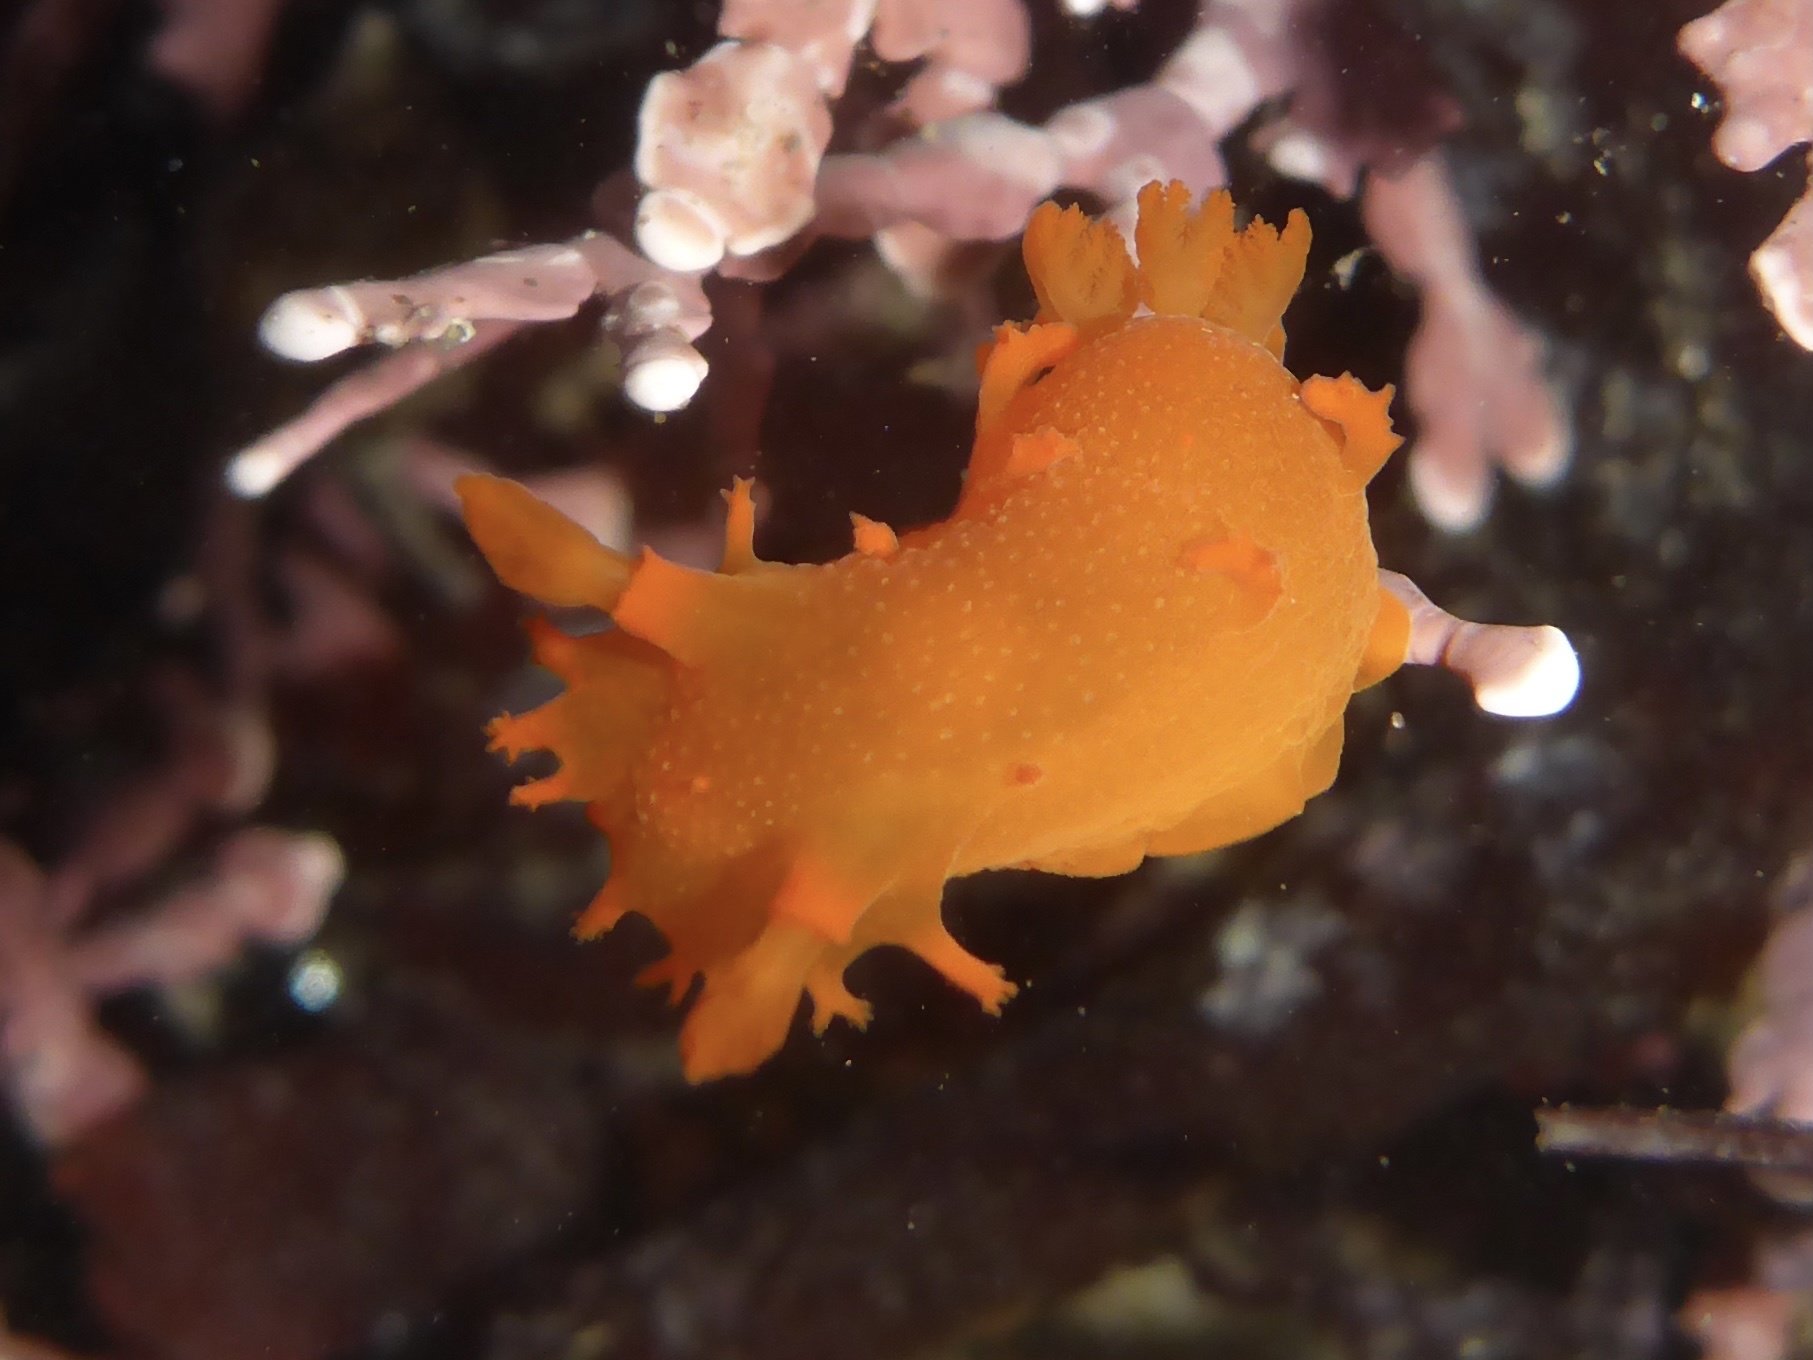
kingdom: Animalia
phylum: Mollusca
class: Gastropoda
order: Nudibranchia
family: Polyceridae
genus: Triopha
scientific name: Triopha maculata
